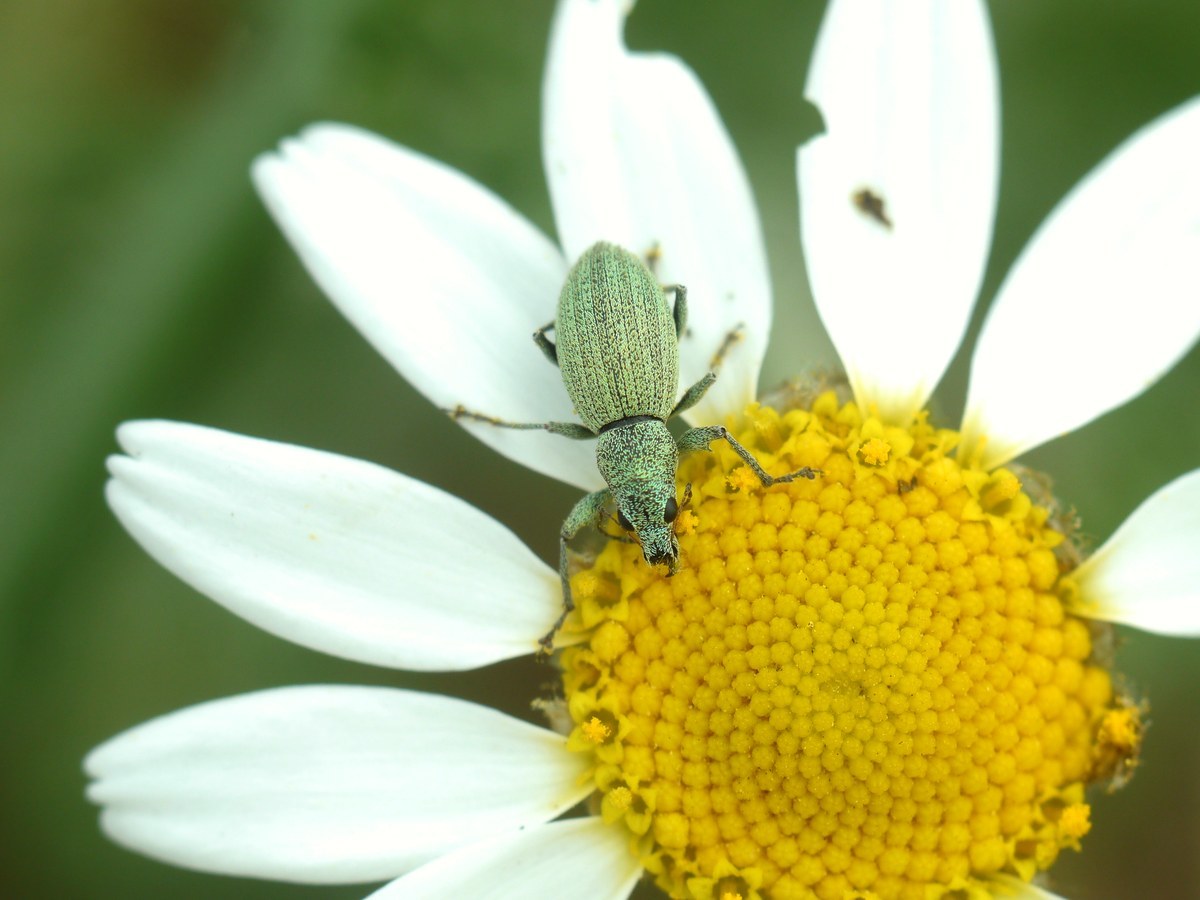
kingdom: Animalia
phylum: Arthropoda
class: Insecta
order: Coleoptera
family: Curculionidae
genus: Eusomus
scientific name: Eusomus ovulum
